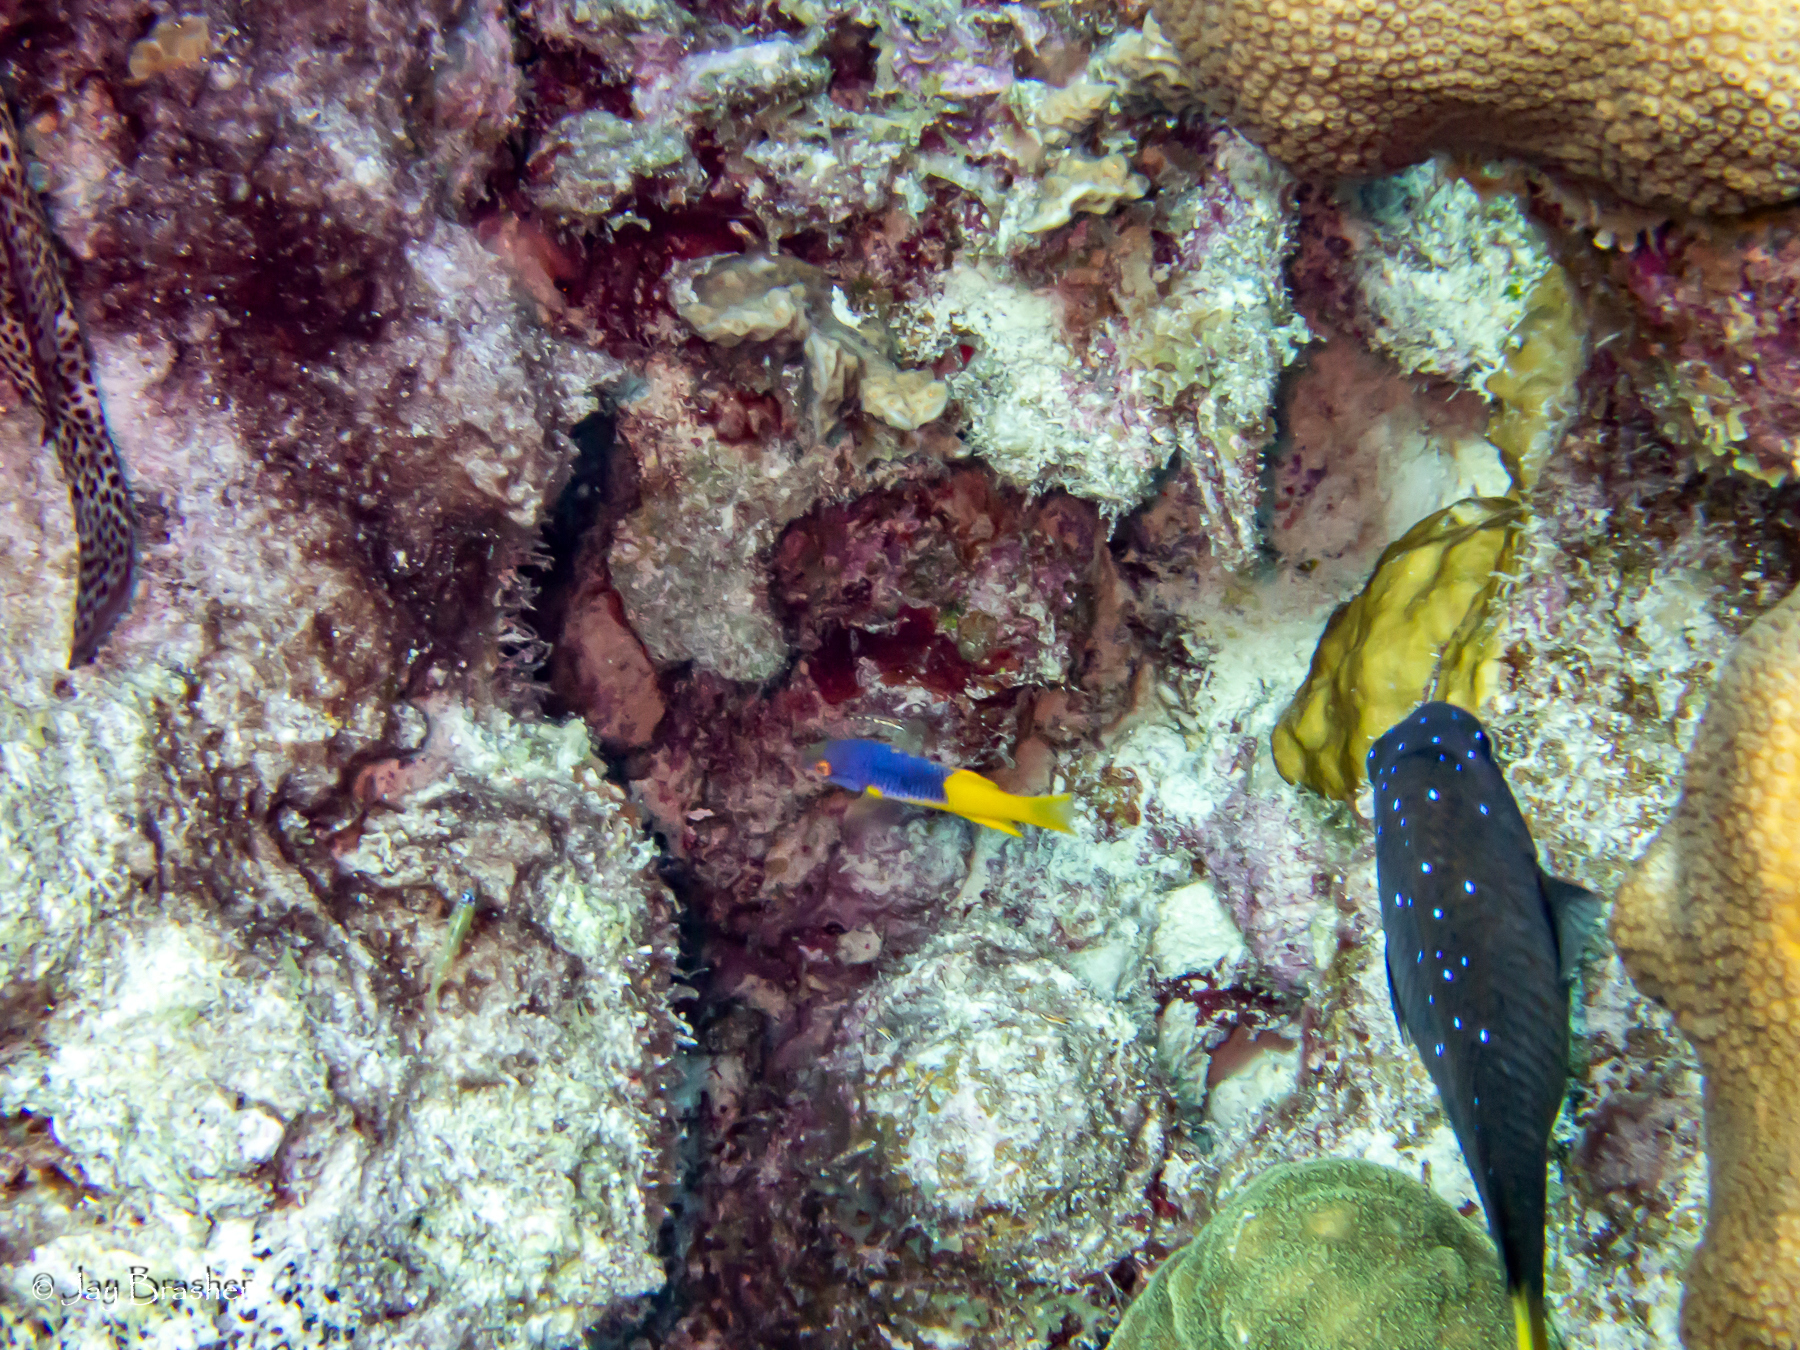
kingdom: Animalia
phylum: Chordata
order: Perciformes
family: Labridae
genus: Bodianus
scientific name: Bodianus rufus
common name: Spanish hogfish
